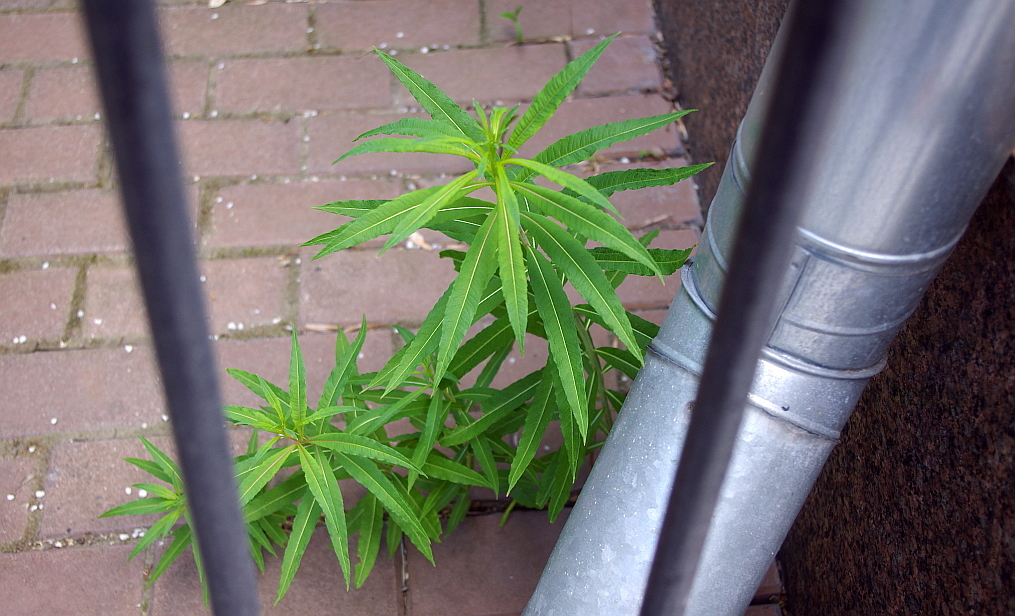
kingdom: Plantae
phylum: Tracheophyta
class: Magnoliopsida
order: Myrtales
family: Onagraceae
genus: Chamaenerion
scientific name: Chamaenerion angustifolium
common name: Fireweed
